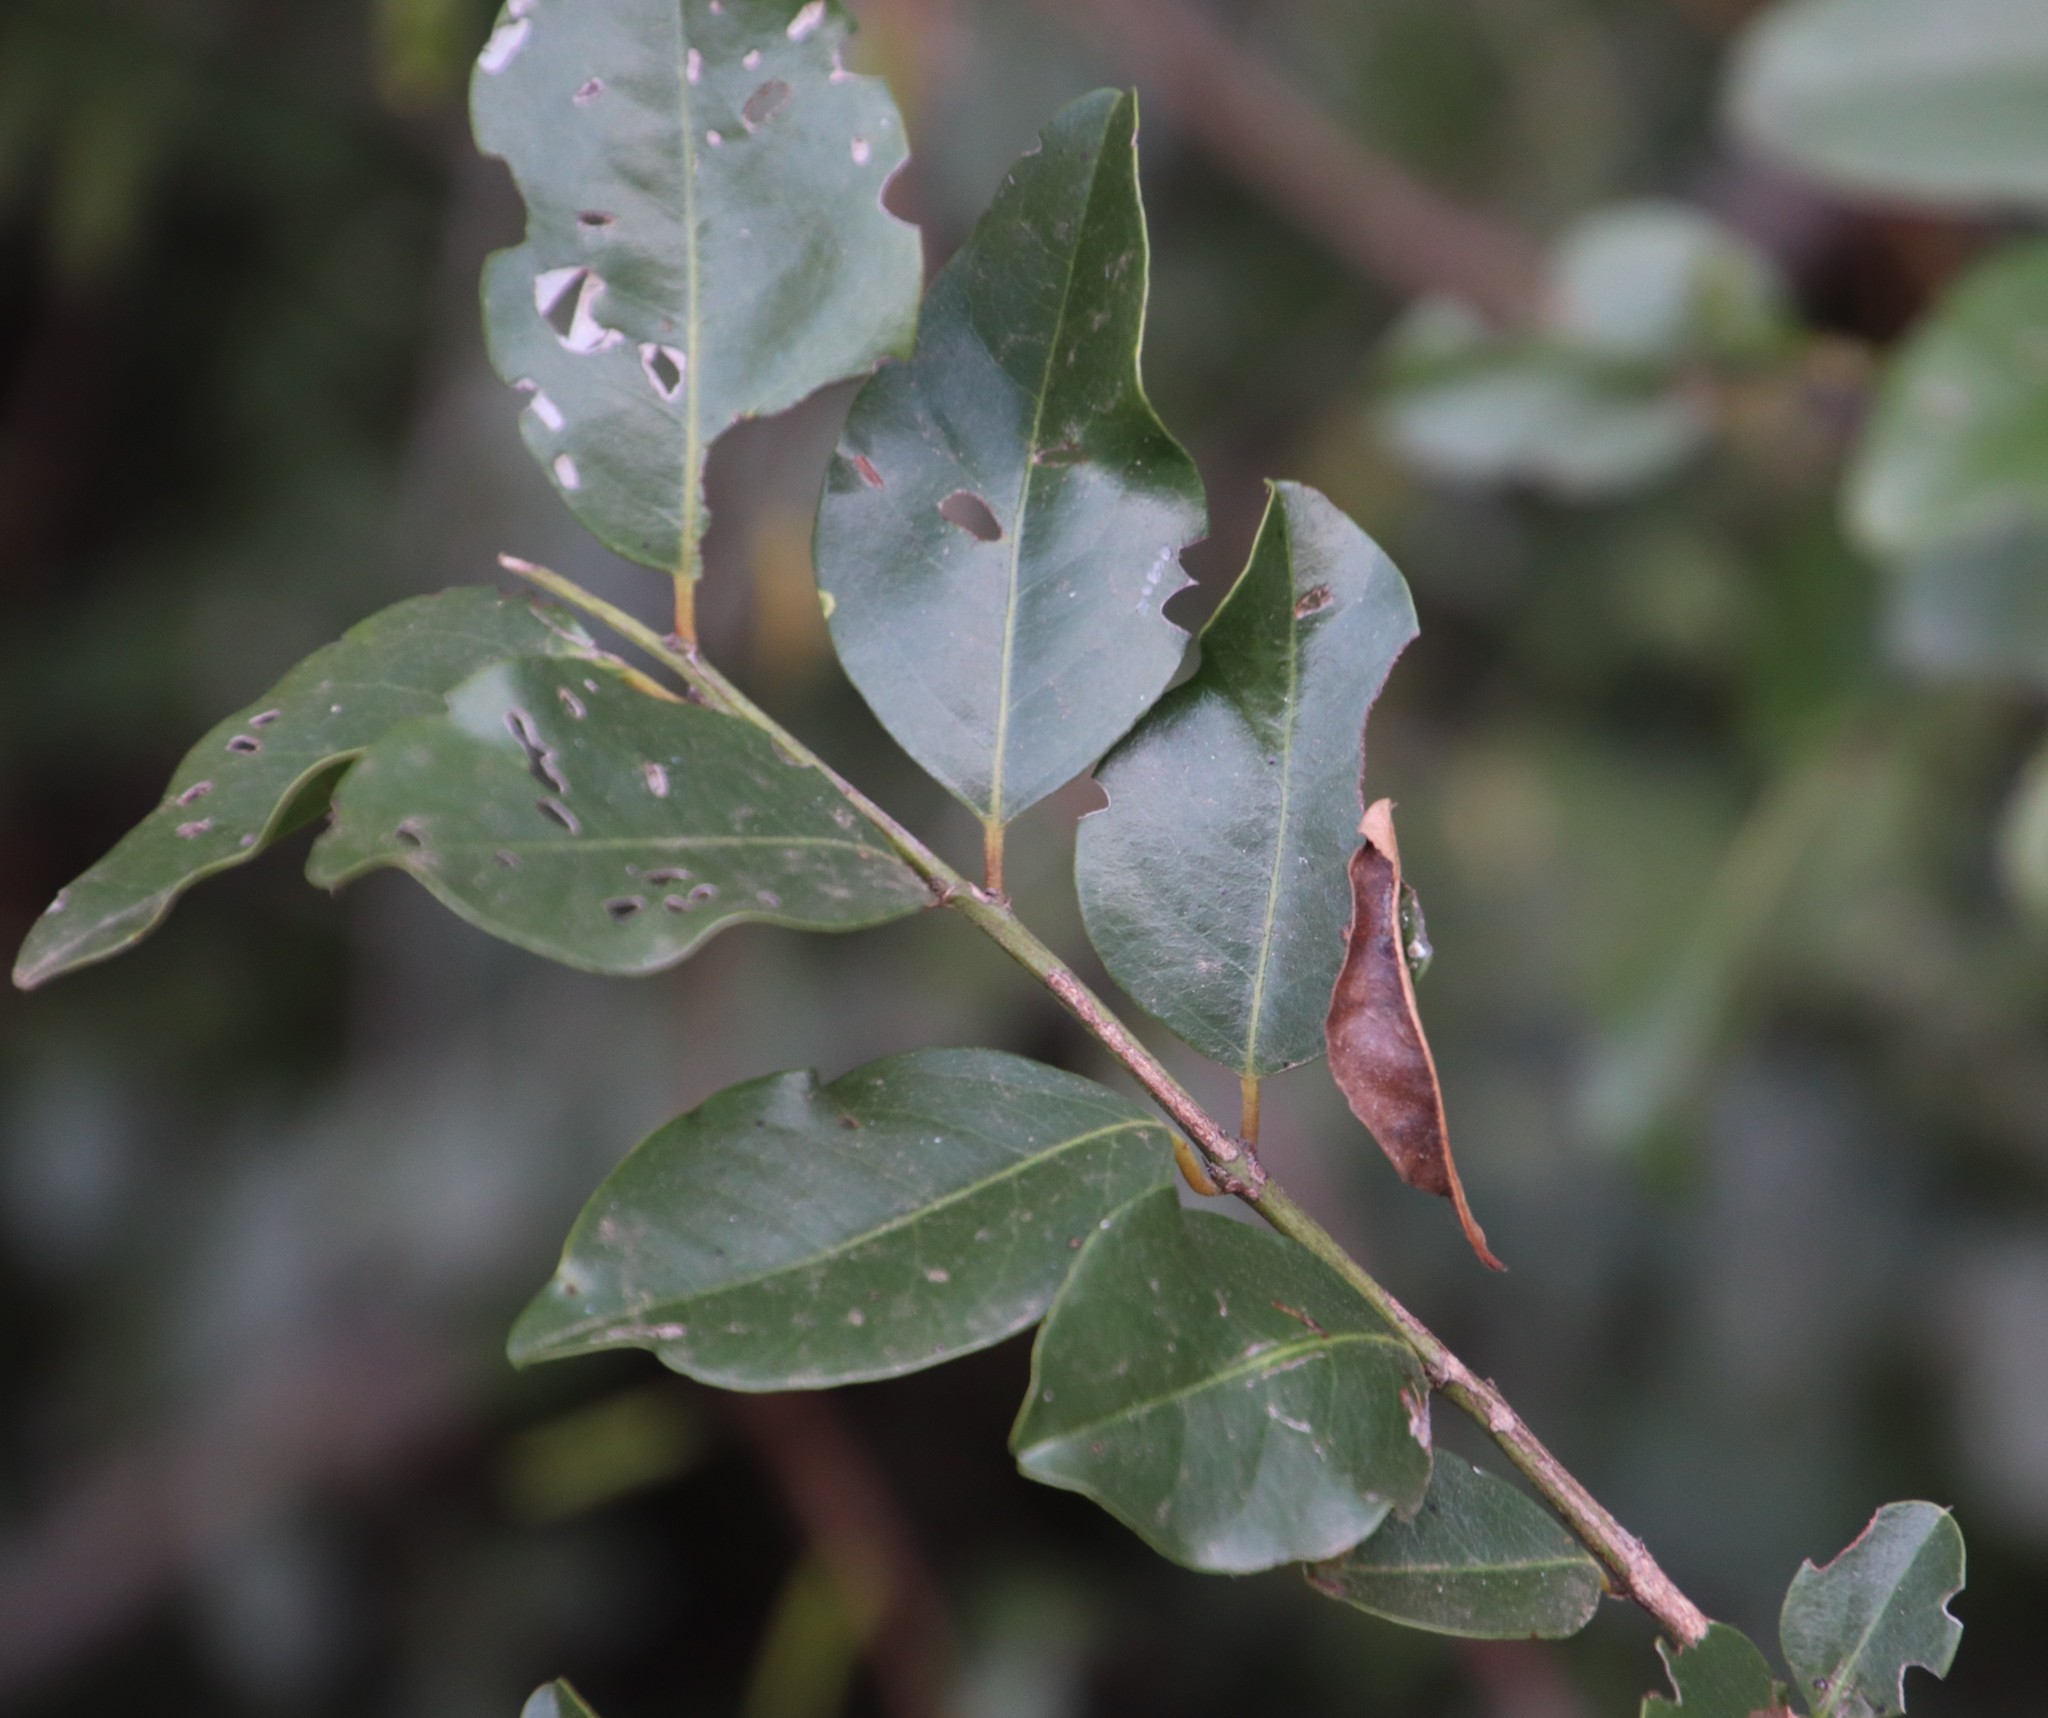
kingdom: Plantae
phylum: Tracheophyta
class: Magnoliopsida
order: Rosales
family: Rhamnaceae
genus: Scutia
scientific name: Scutia myrtina
